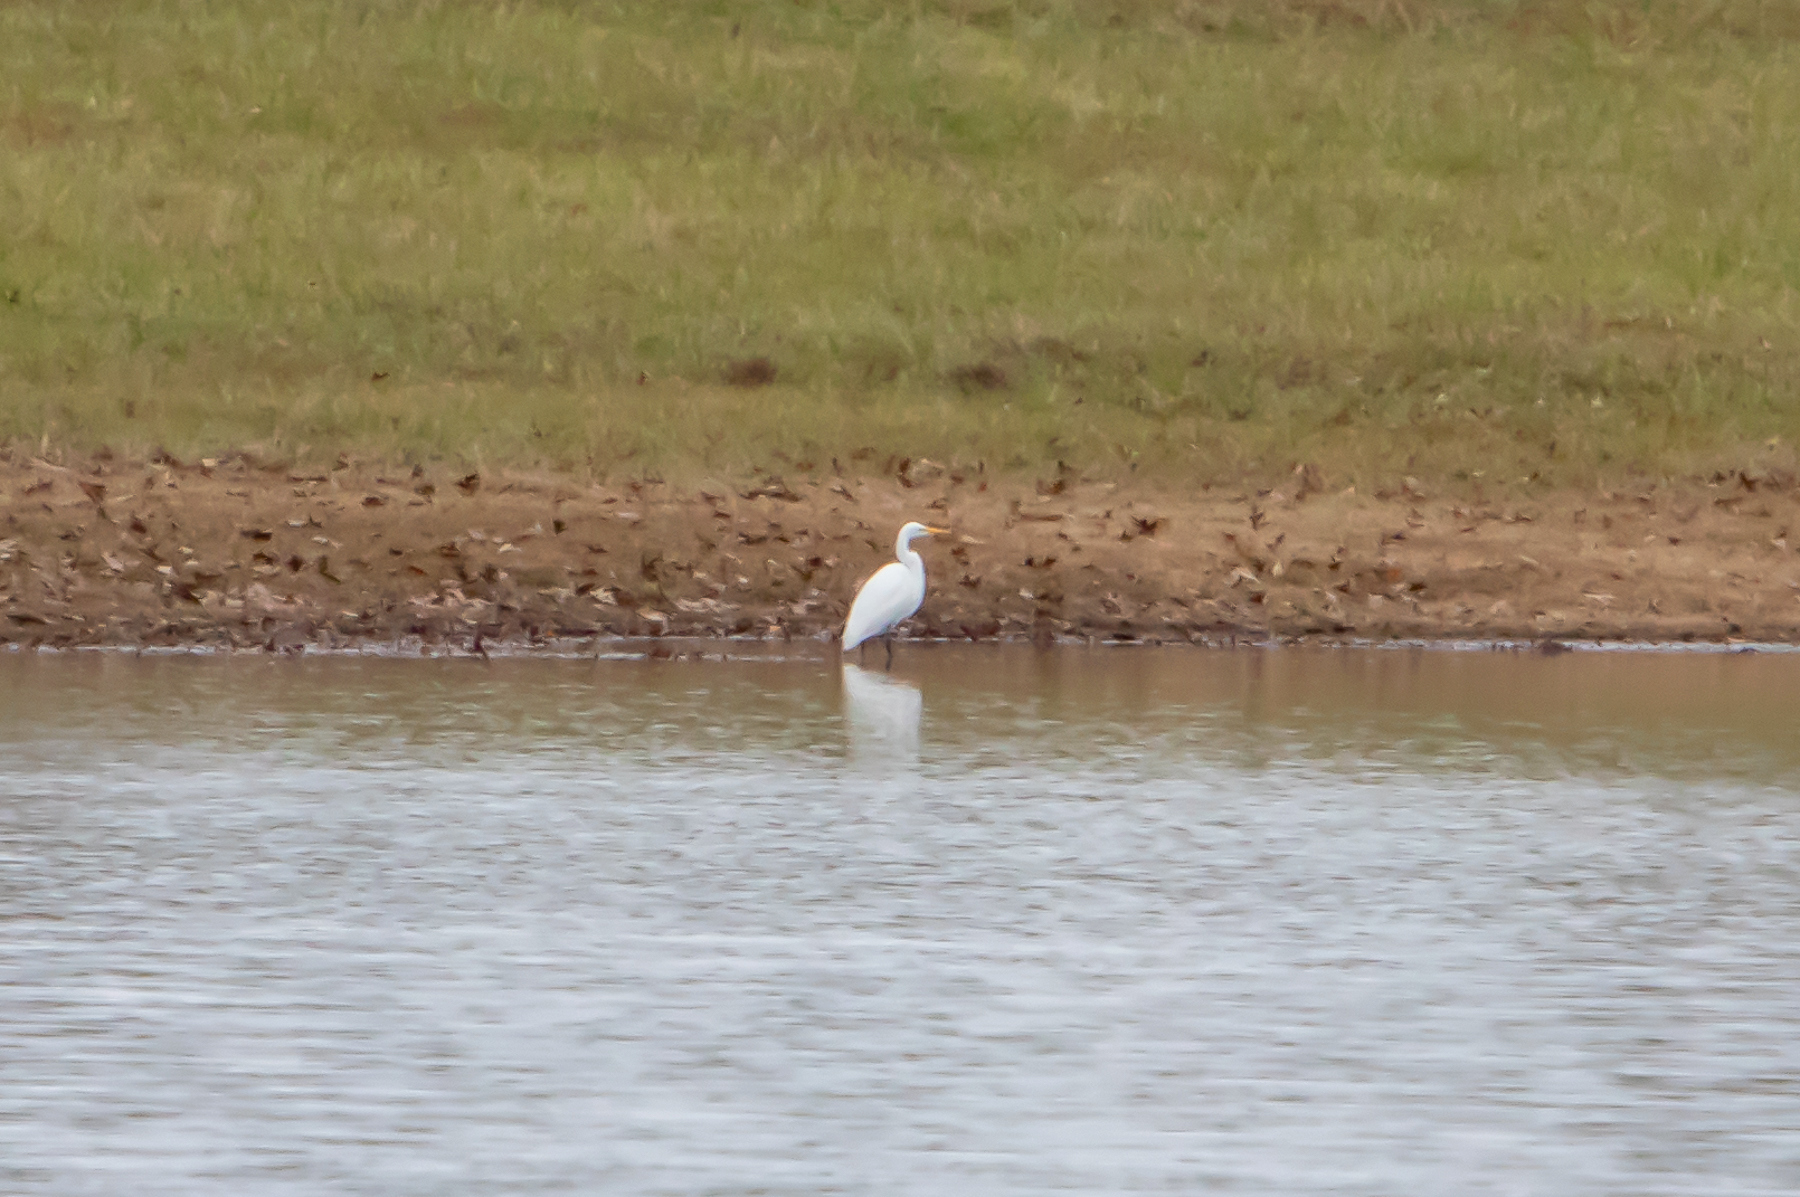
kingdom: Animalia
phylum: Chordata
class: Aves
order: Pelecaniformes
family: Ardeidae
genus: Ardea
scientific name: Ardea alba
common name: Great egret
